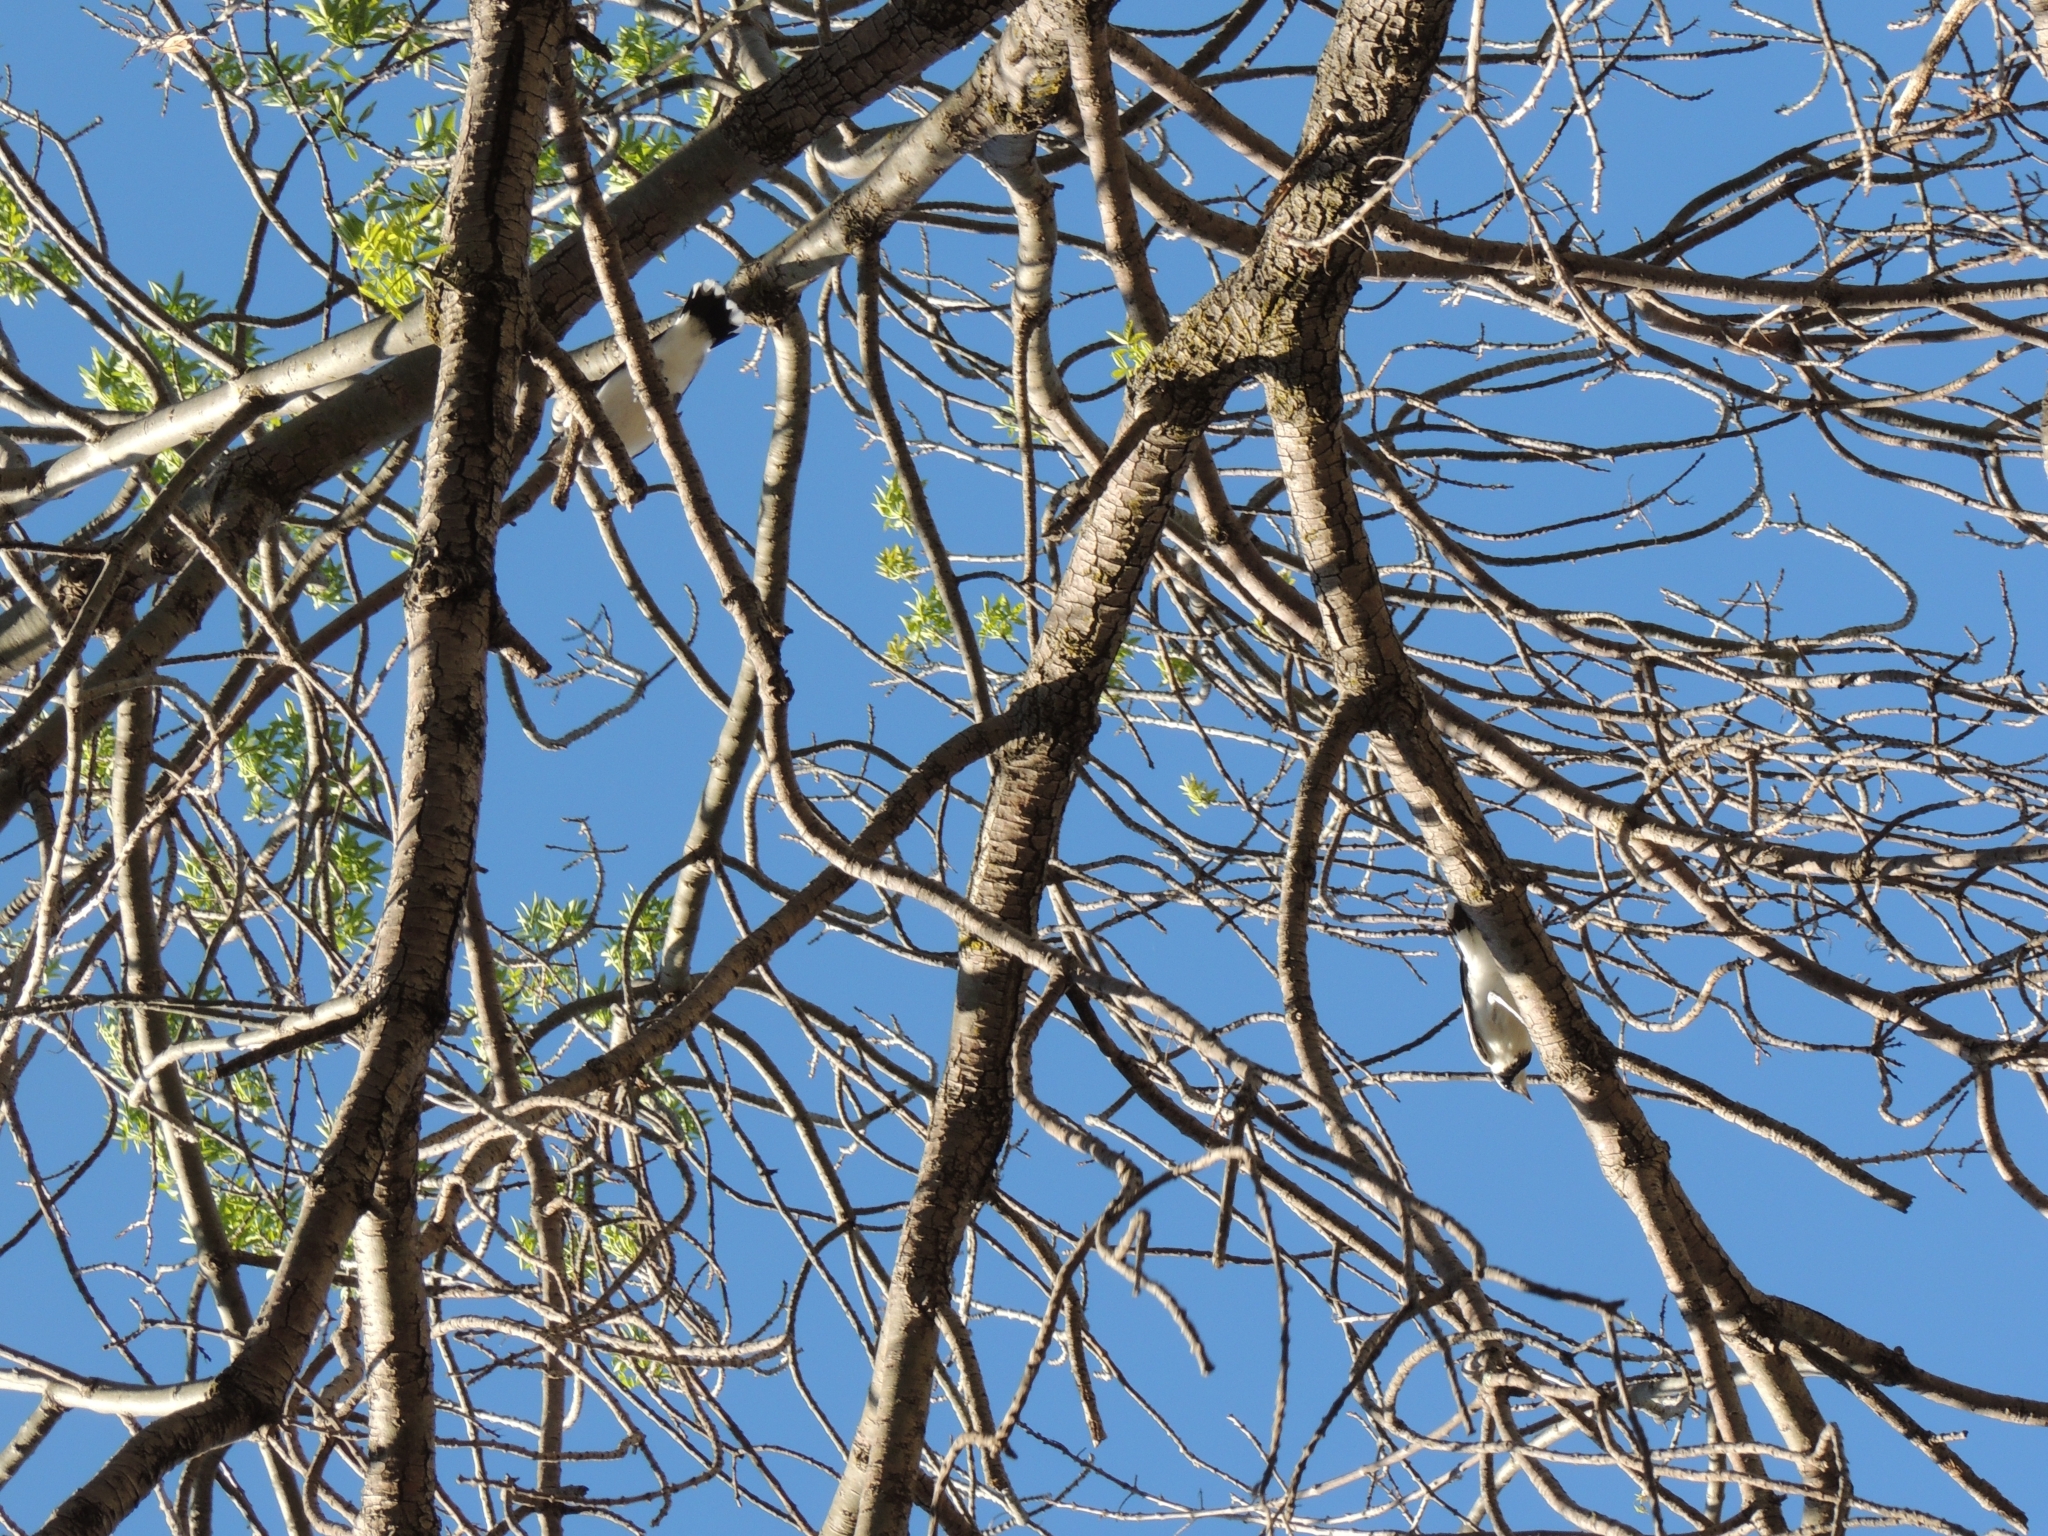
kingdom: Animalia
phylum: Chordata
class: Aves
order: Passeriformes
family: Monarchidae
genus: Grallina
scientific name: Grallina cyanoleuca
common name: Magpie-lark
